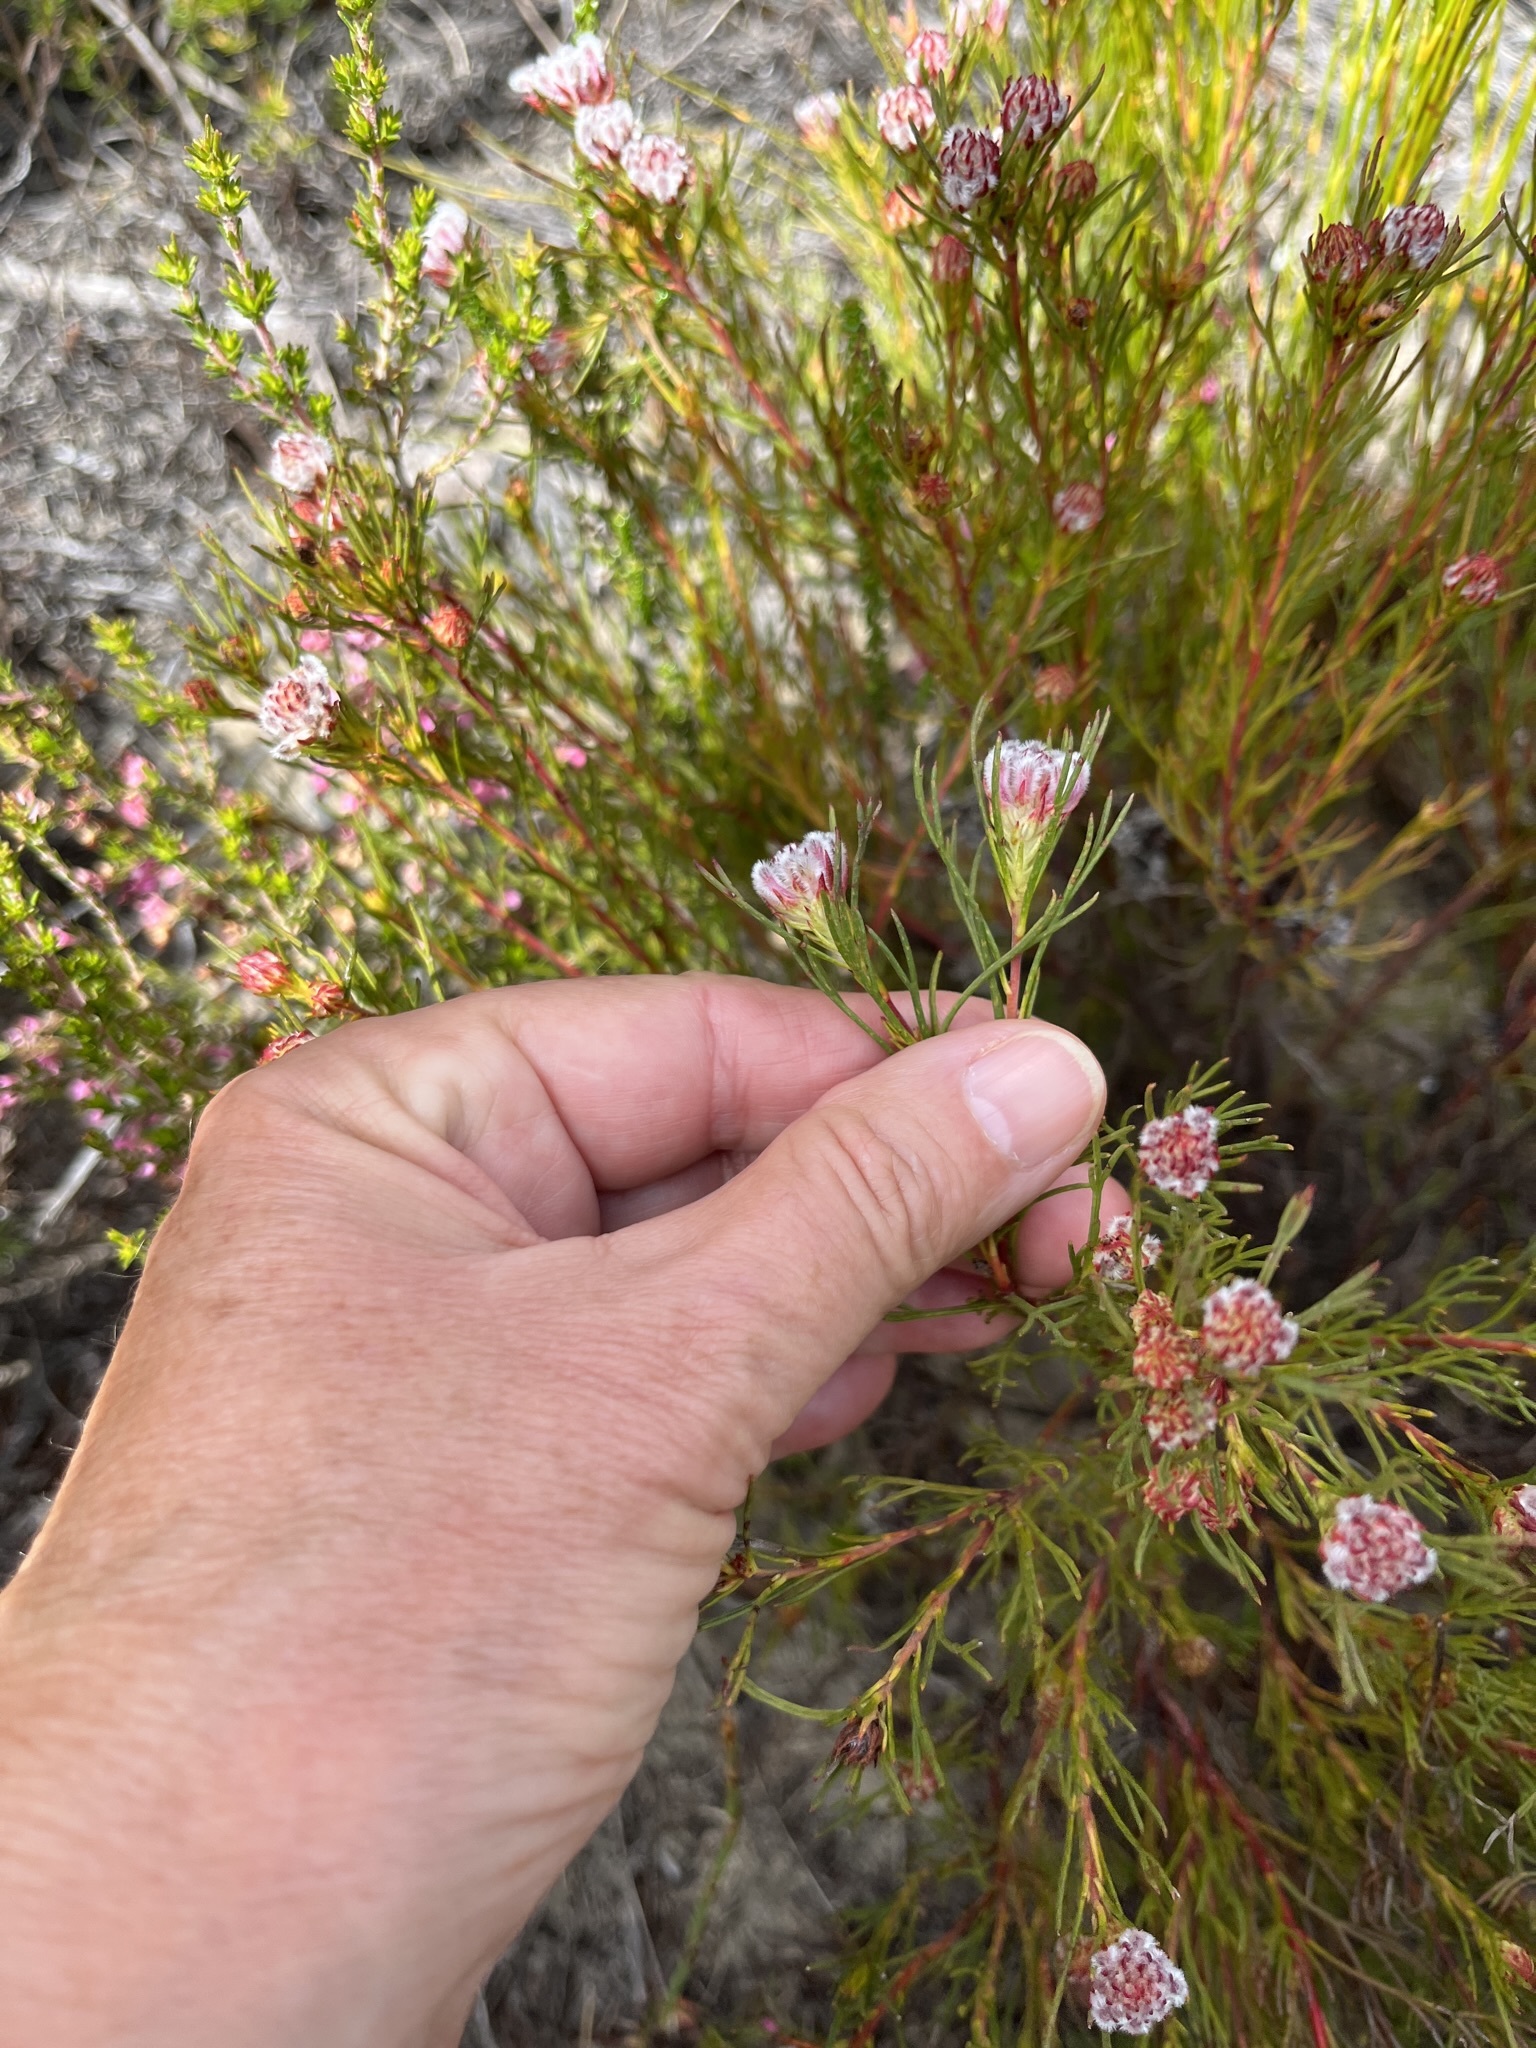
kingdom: Plantae
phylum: Tracheophyta
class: Magnoliopsida
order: Proteales
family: Proteaceae
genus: Serruria
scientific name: Serruria nervosa
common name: Fluted spiderhead
